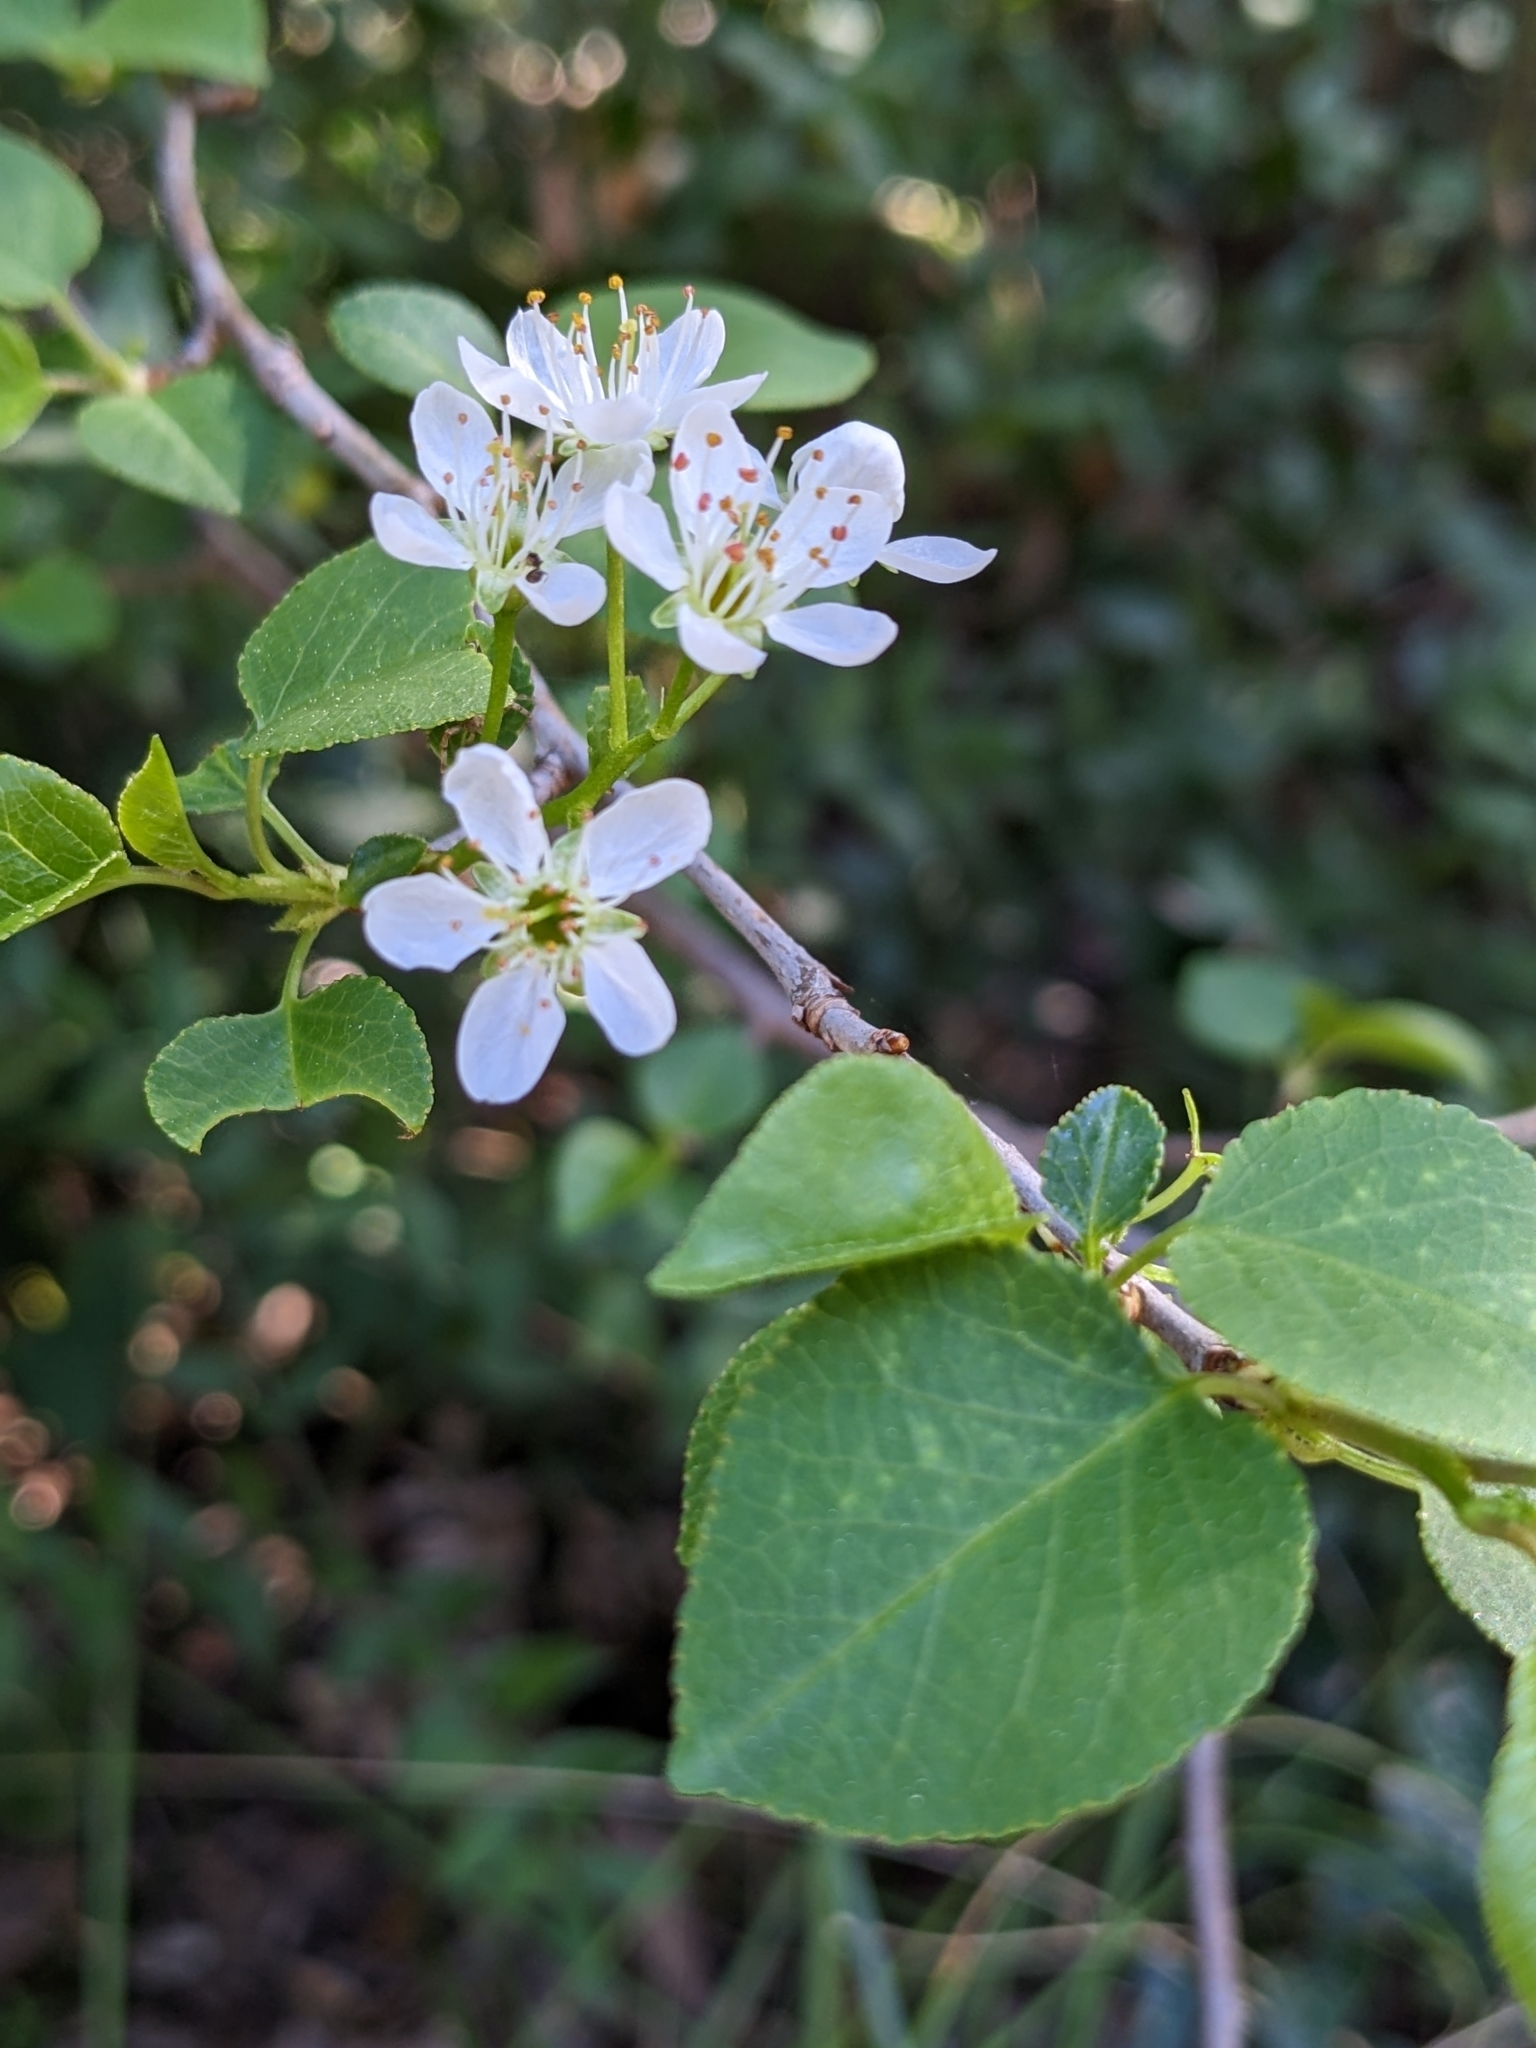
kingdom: Plantae
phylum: Tracheophyta
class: Magnoliopsida
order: Rosales
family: Rosaceae
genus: Prunus
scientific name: Prunus mahaleb
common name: Mahaleb cherry
